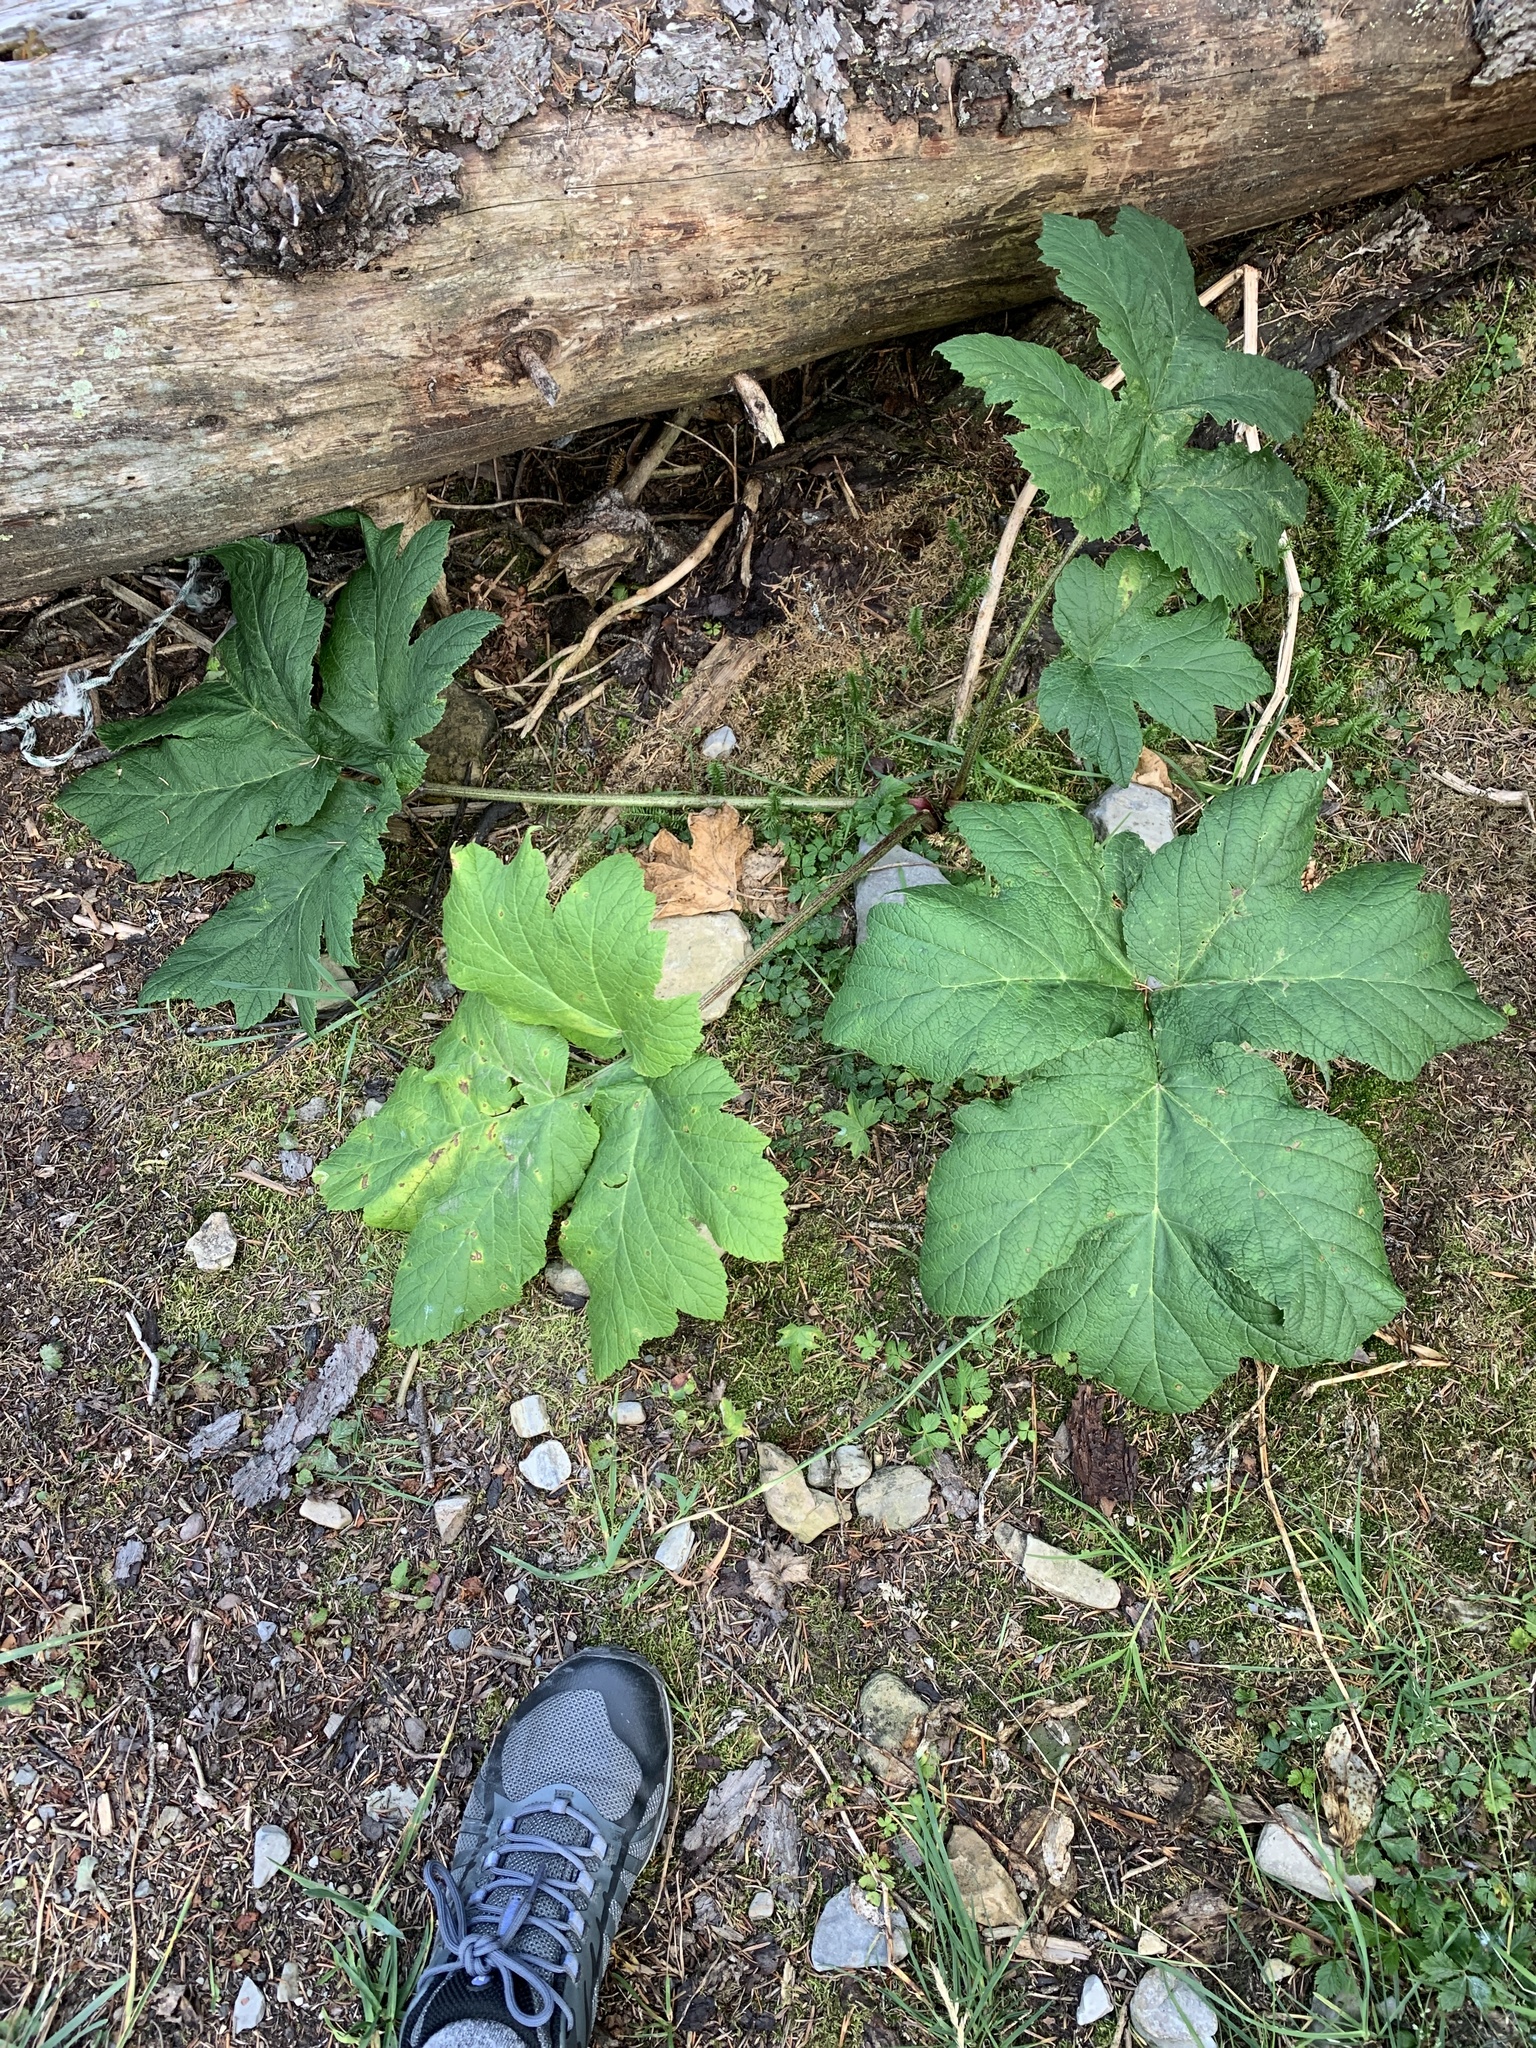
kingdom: Plantae
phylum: Tracheophyta
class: Magnoliopsida
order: Apiales
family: Apiaceae
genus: Heracleum
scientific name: Heracleum maximum
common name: American cow parsnip
